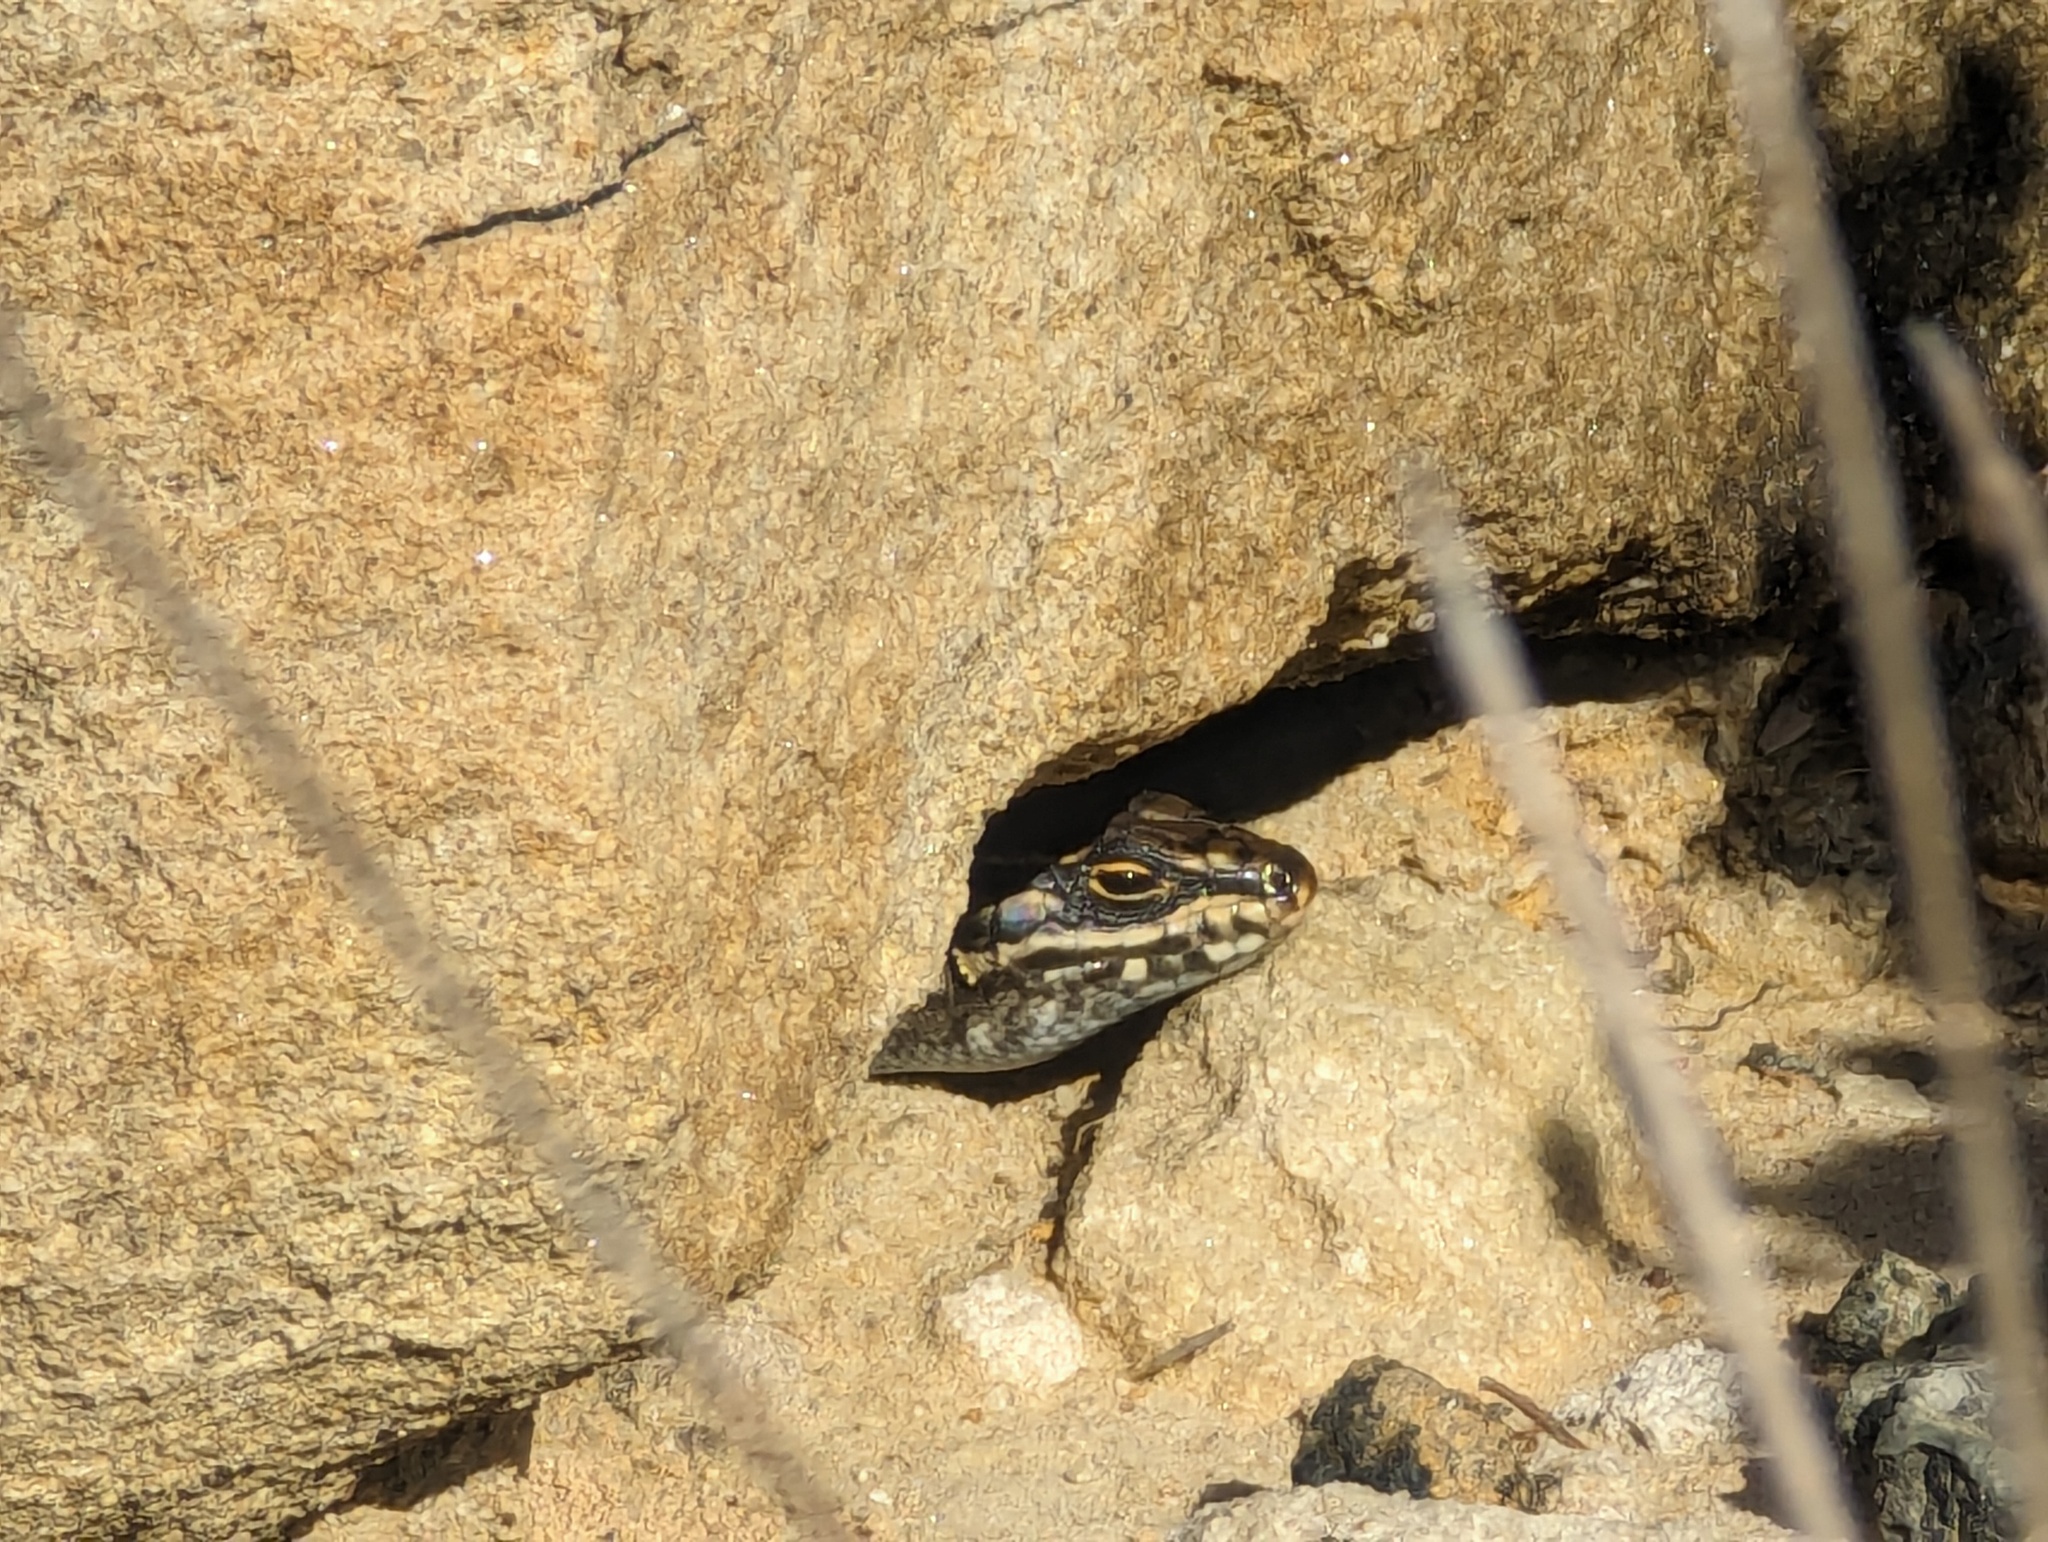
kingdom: Animalia
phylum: Chordata
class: Squamata
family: Scincidae
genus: Liopholis
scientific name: Liopholis whitii
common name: White's rock-skink
